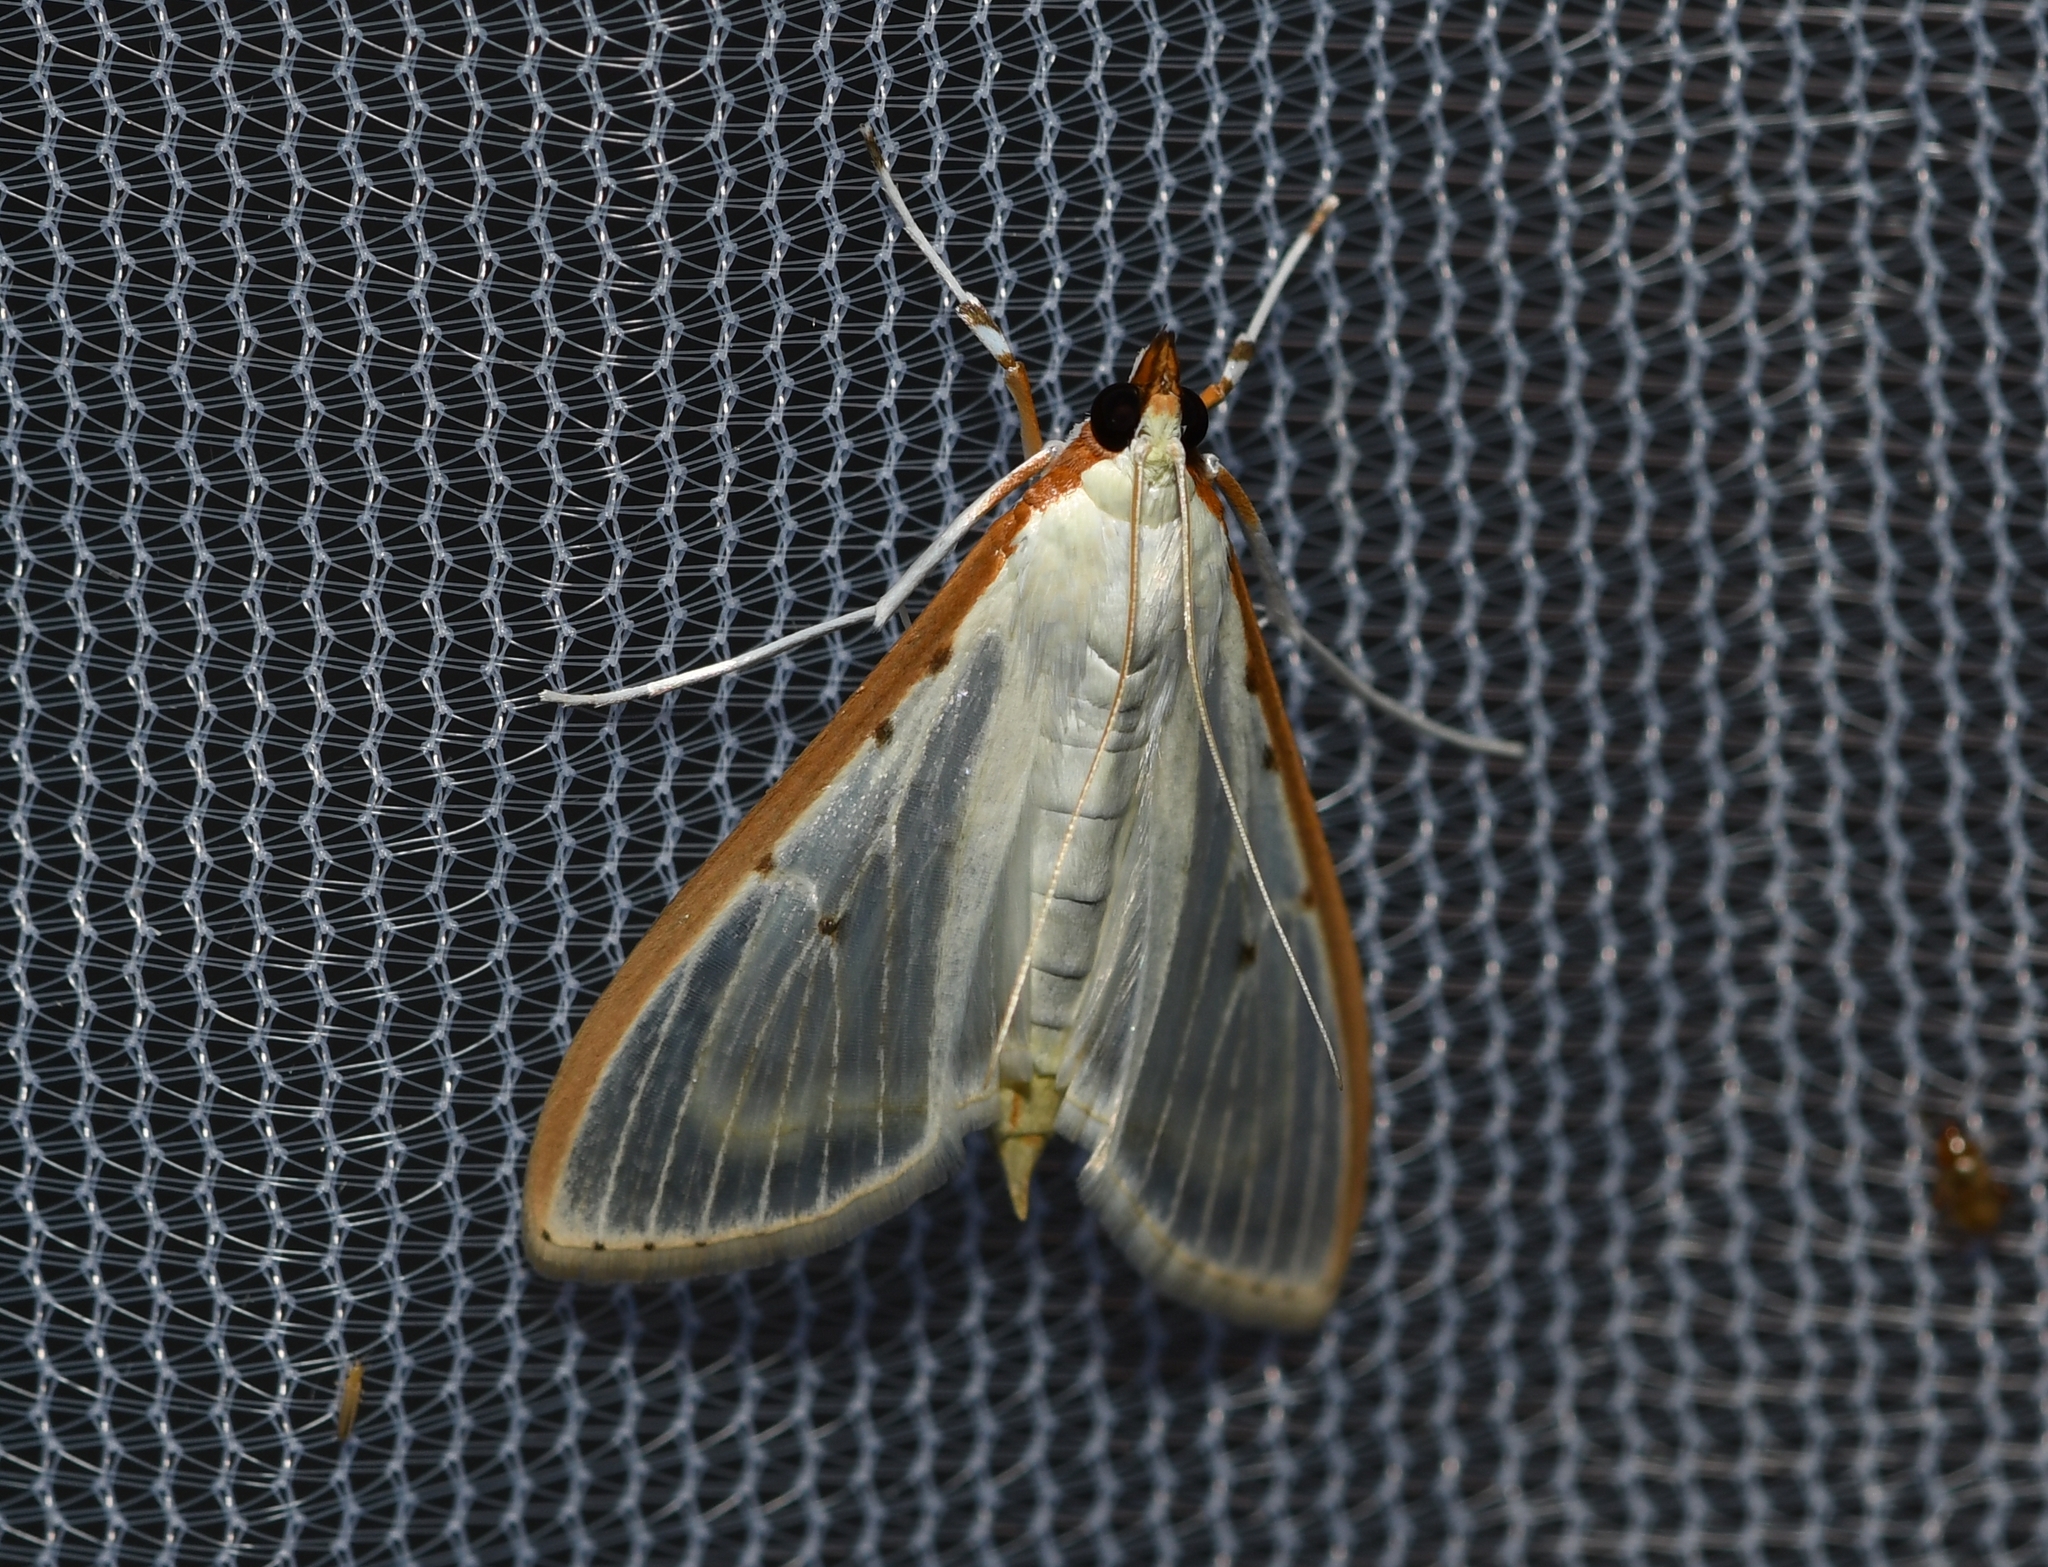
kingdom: Animalia
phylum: Arthropoda
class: Insecta
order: Lepidoptera
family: Crambidae
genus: Palpita
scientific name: Palpita quadristigmalis
